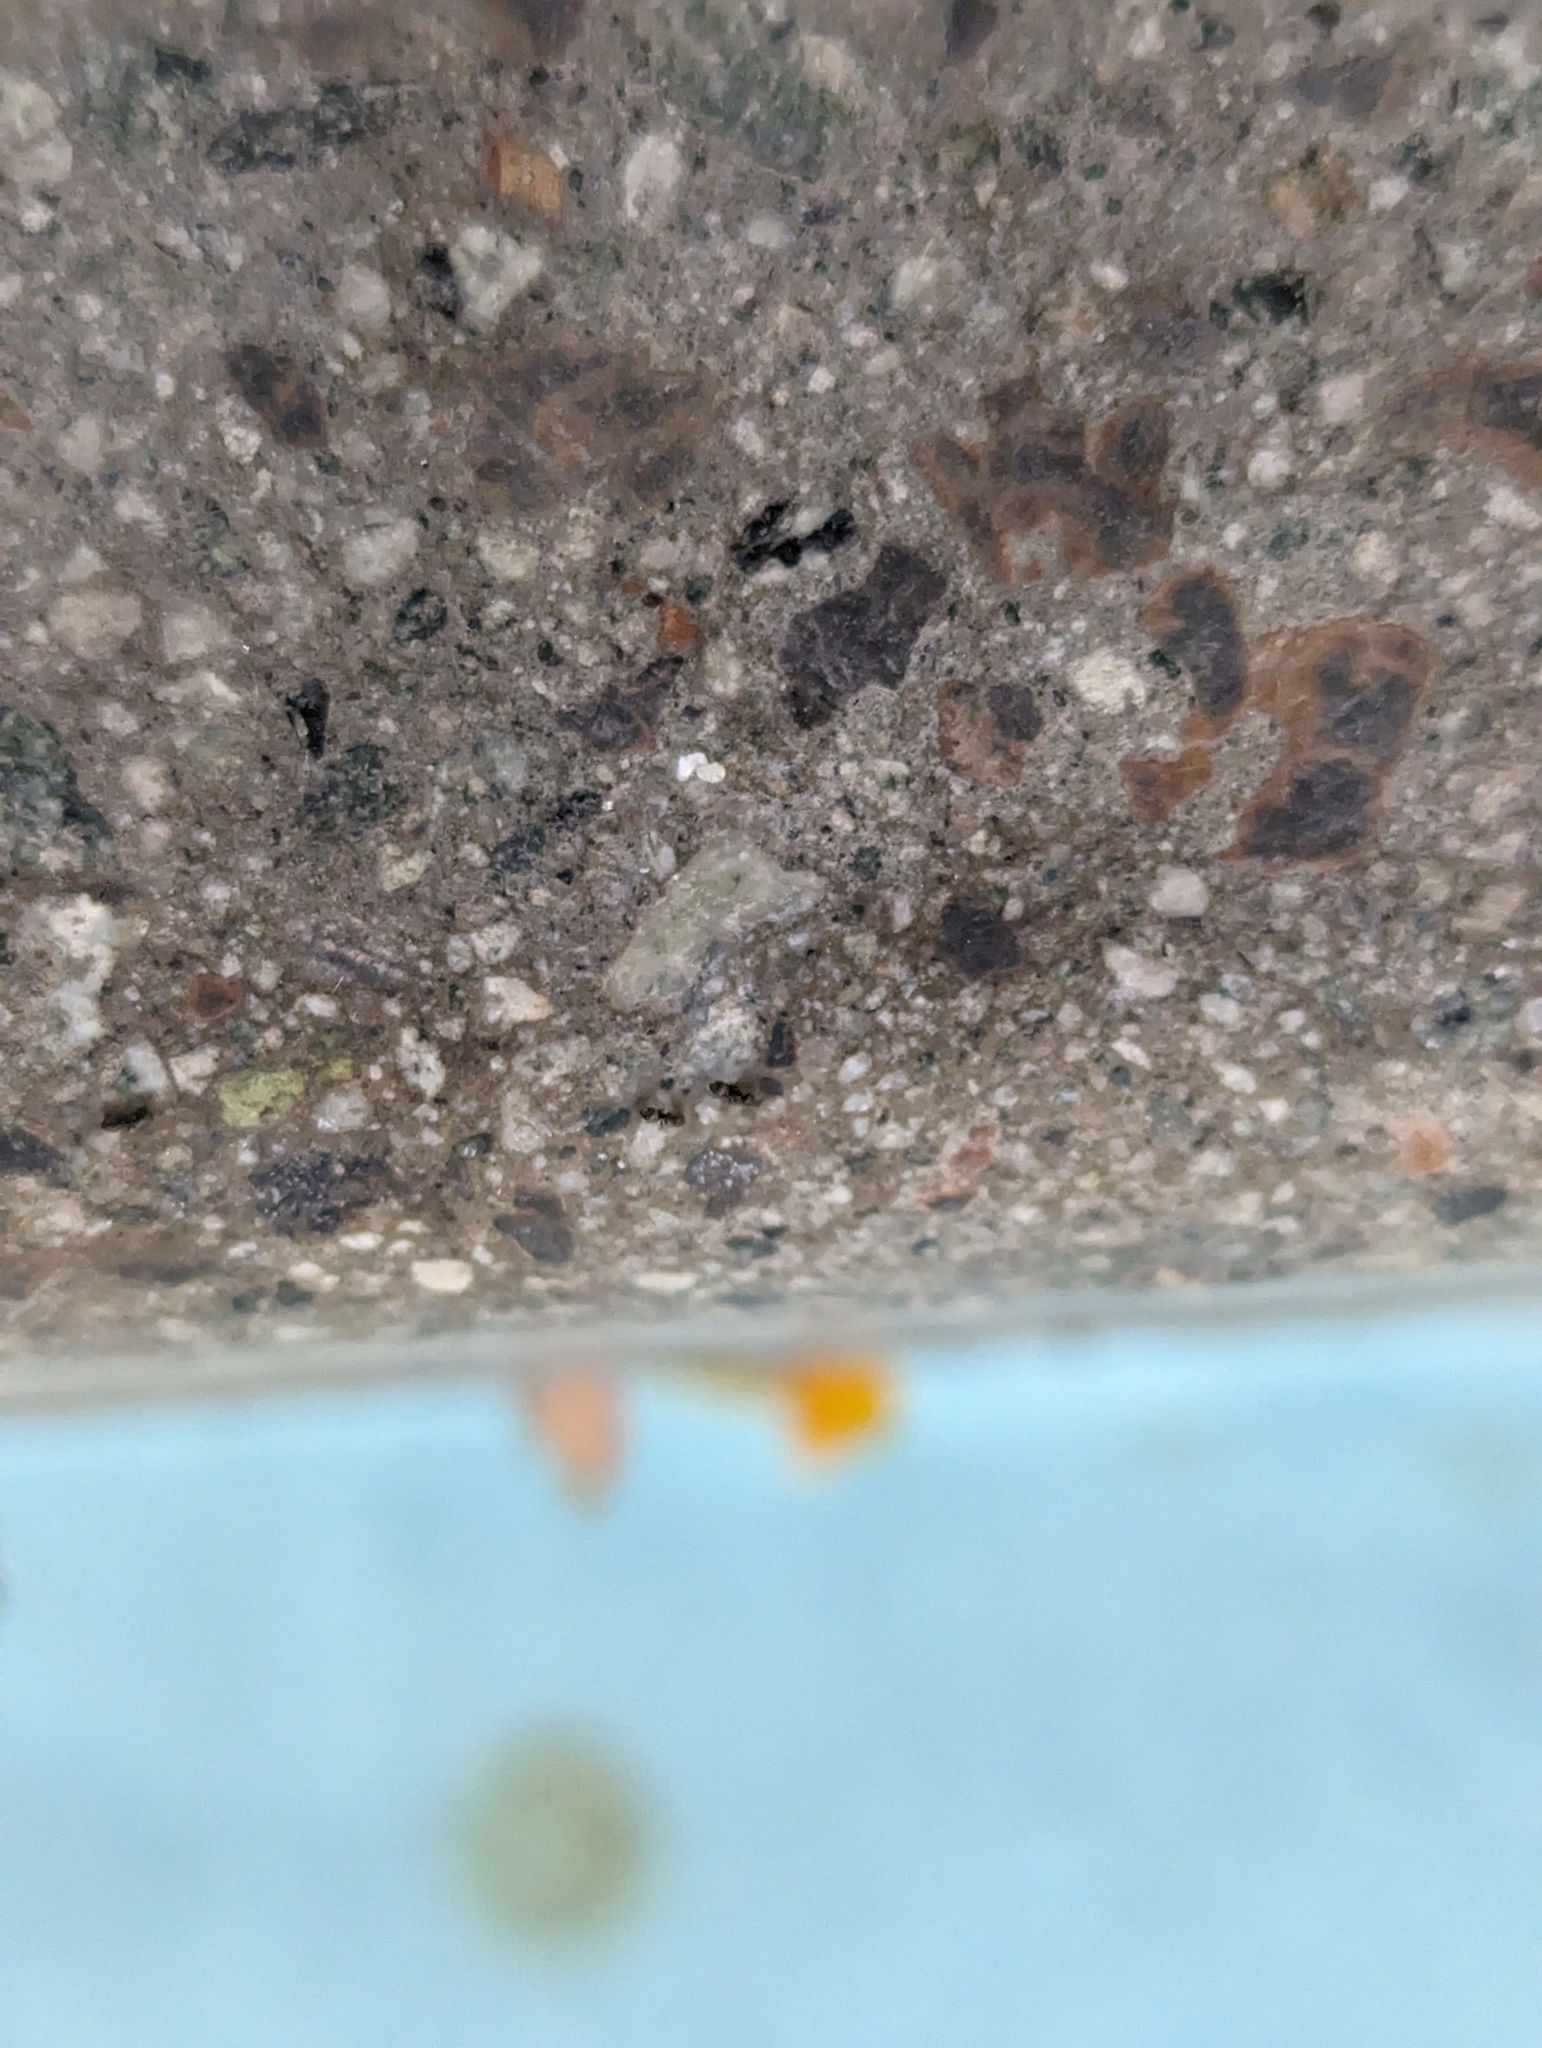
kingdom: Animalia
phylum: Arthropoda
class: Insecta
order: Hymenoptera
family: Formicidae
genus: Brachymyrmex
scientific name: Brachymyrmex patagonicus
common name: Dark rover ant
